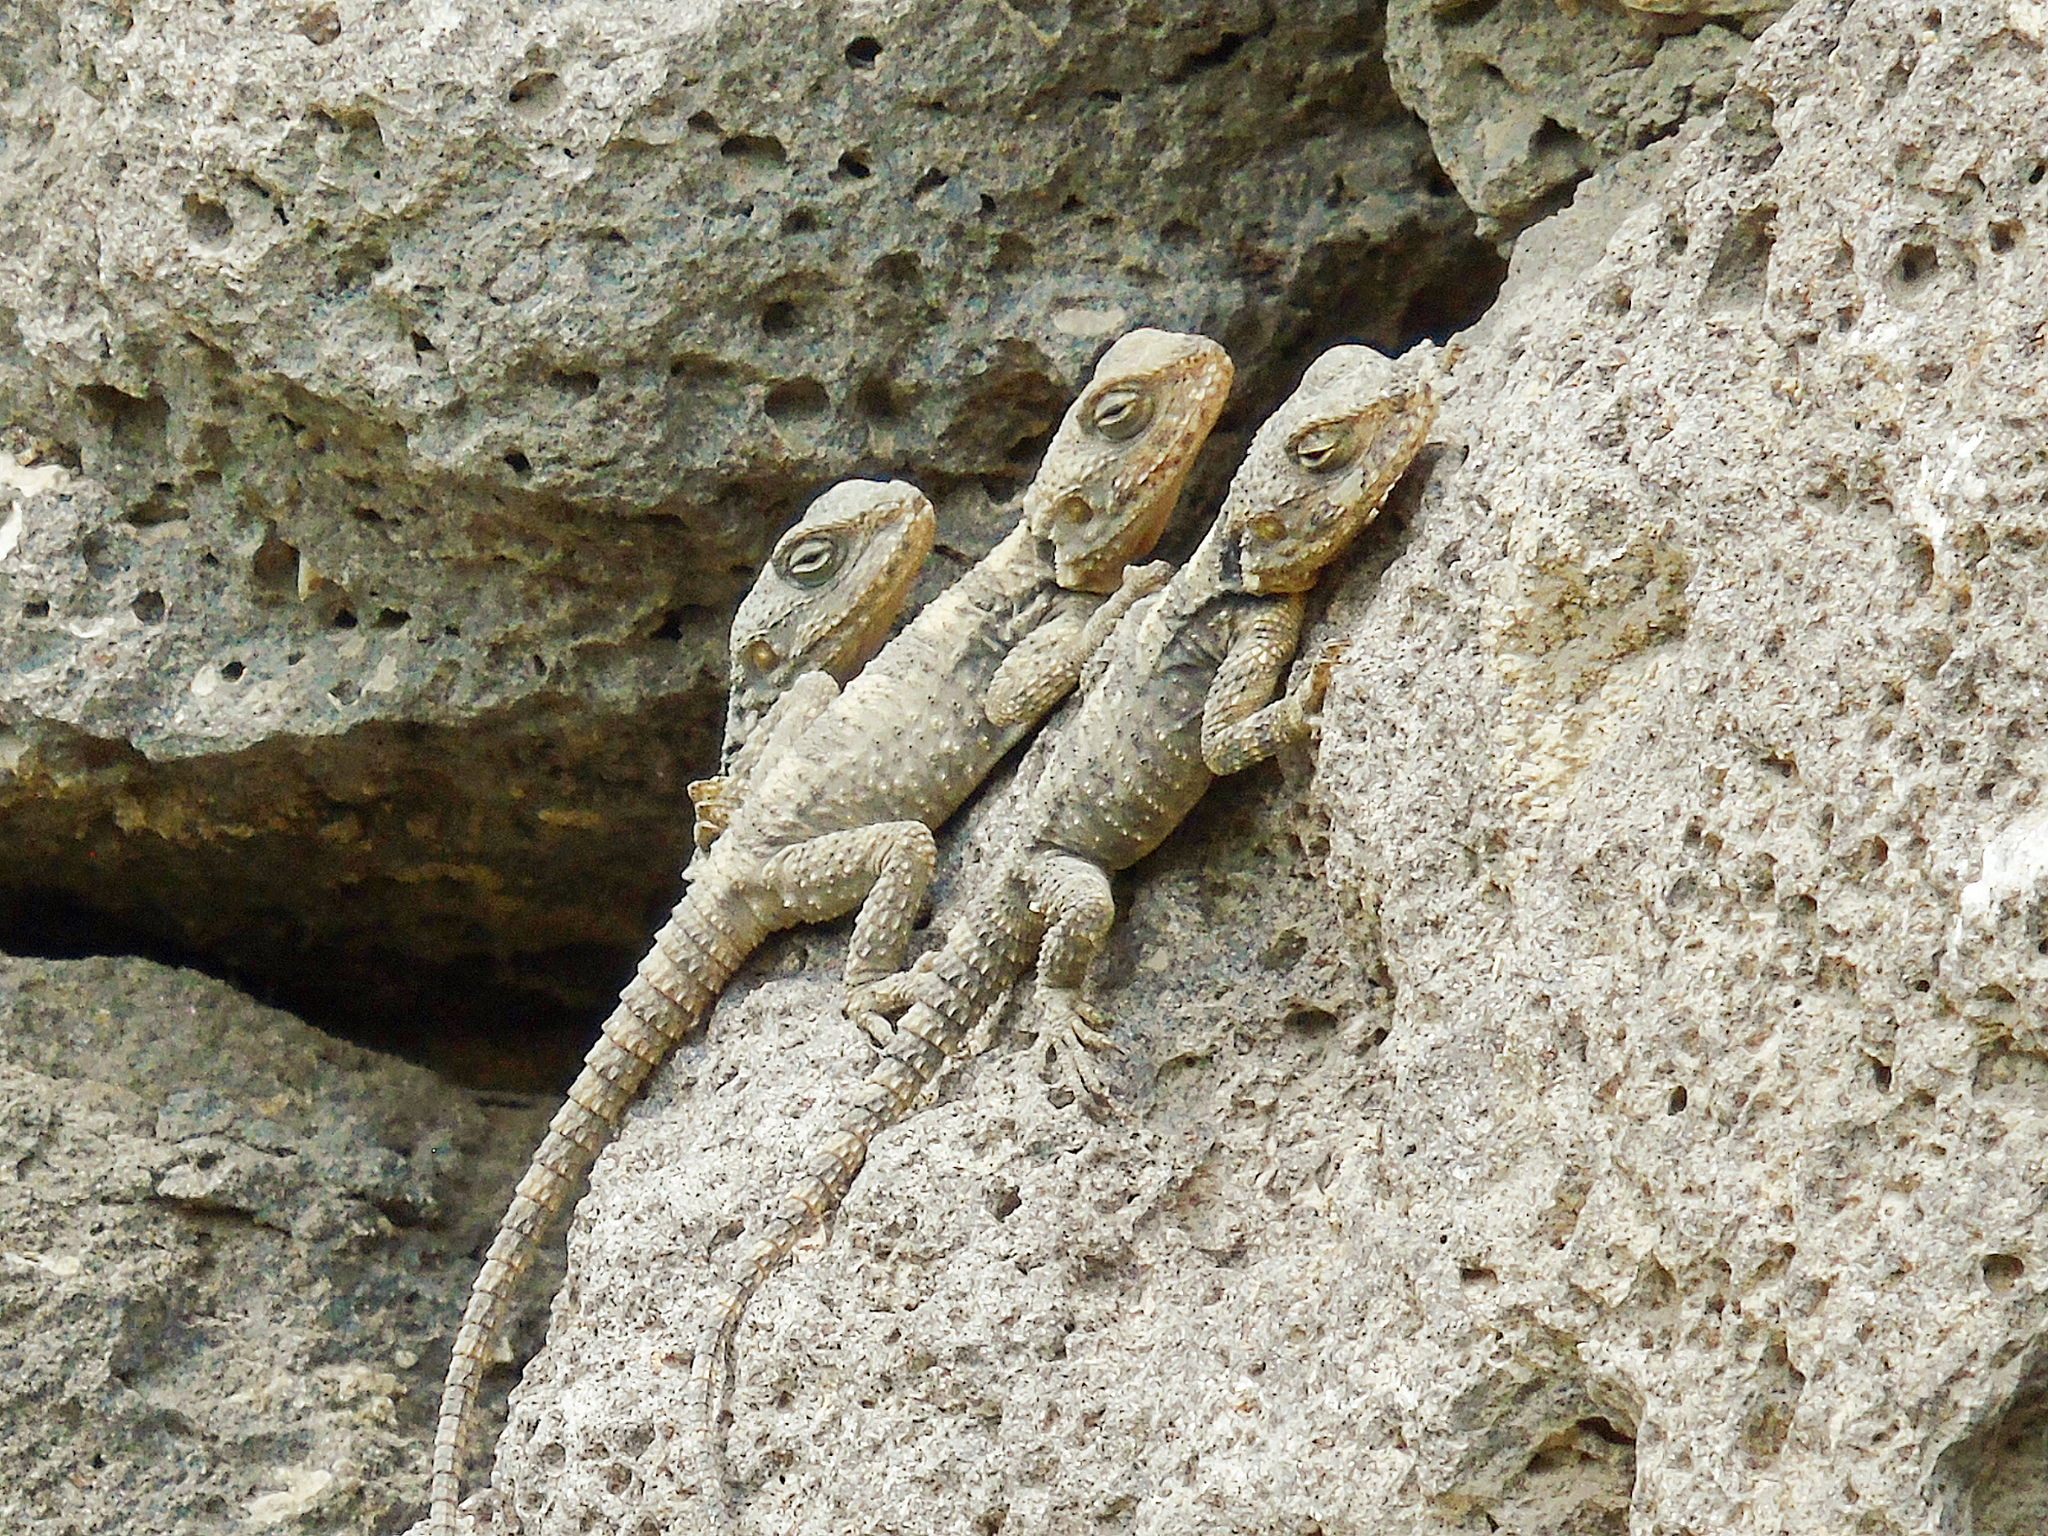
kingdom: Animalia
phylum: Chordata
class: Squamata
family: Agamidae
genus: Stellagama
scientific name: Stellagama stellio
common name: Starred agama
